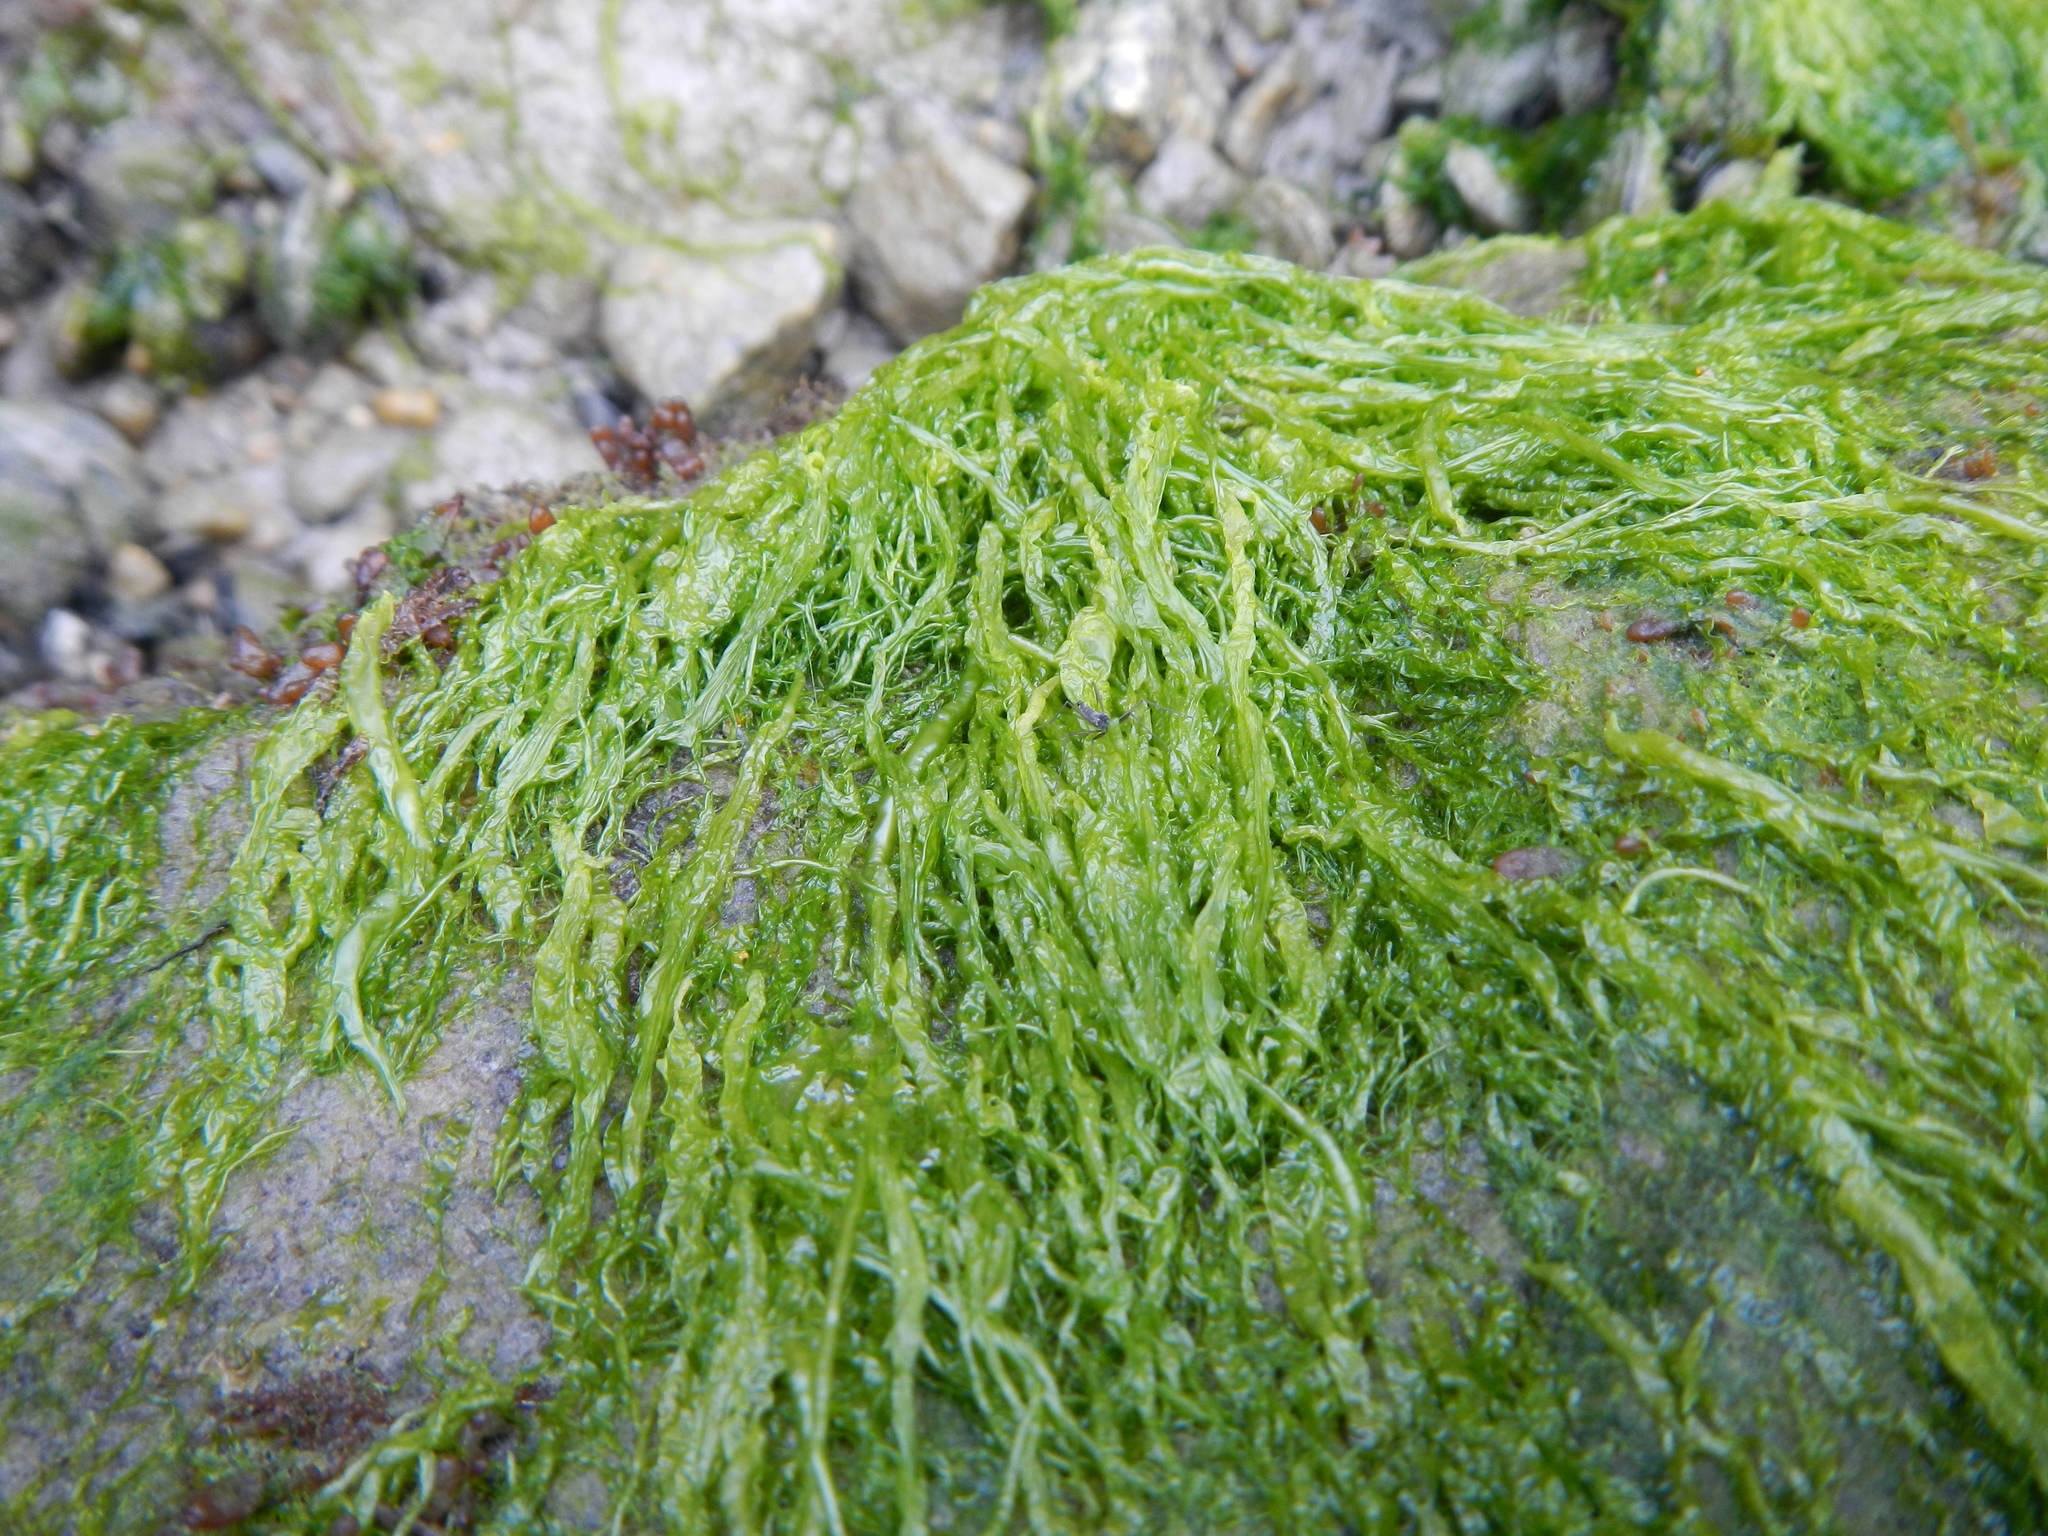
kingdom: Plantae
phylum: Chlorophyta
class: Ulvophyceae
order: Ulvales
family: Ulvaceae
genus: Ulva
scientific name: Ulva intestinalis
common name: Gut weed
